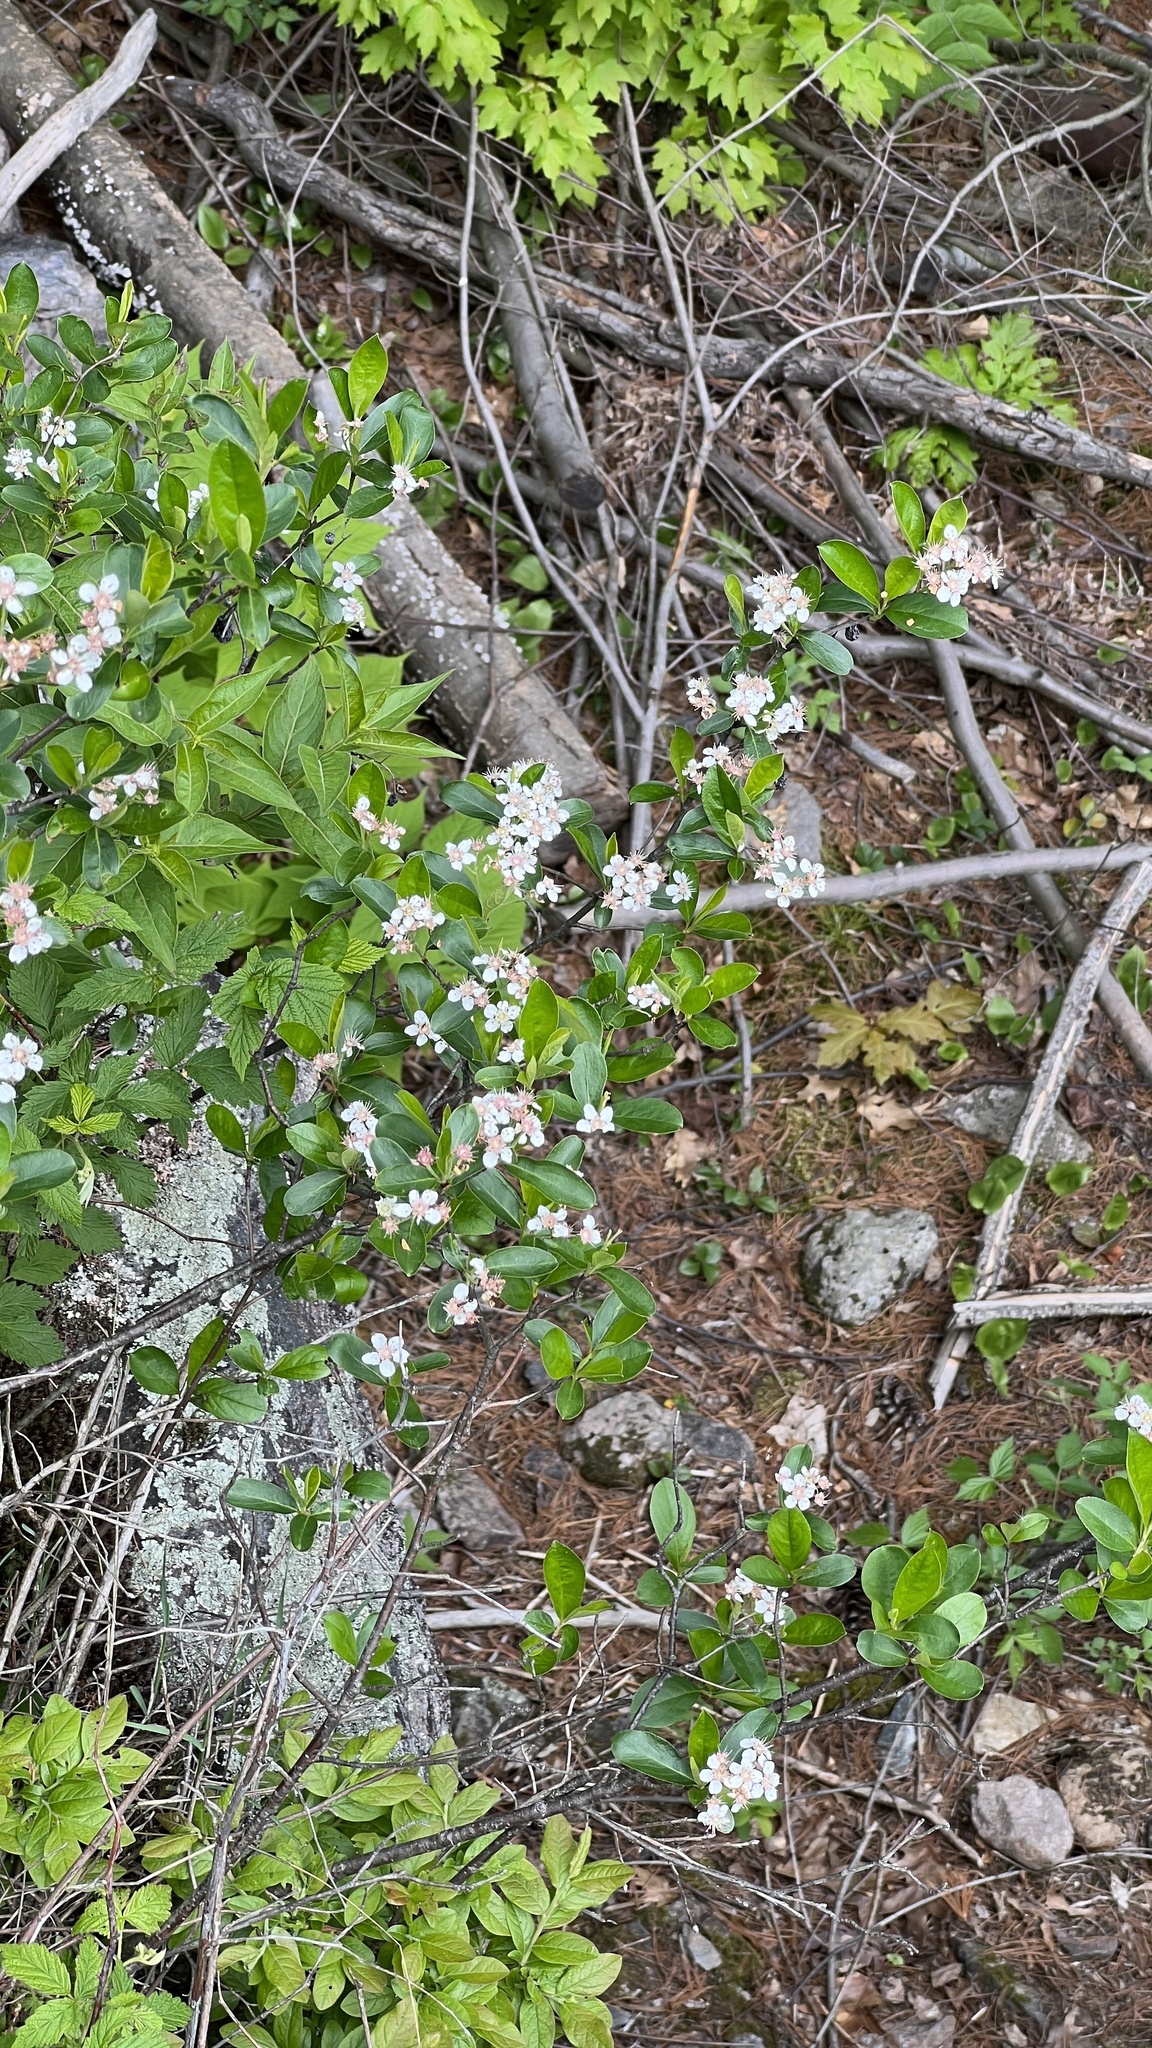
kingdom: Plantae
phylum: Tracheophyta
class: Magnoliopsida
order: Rosales
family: Rosaceae
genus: Aronia
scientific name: Aronia melanocarpa
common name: Black chokeberry
